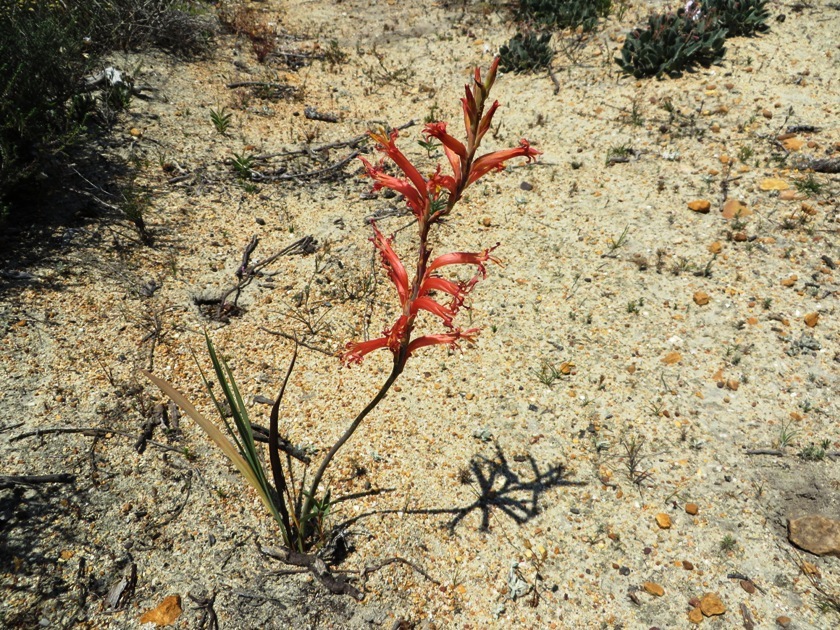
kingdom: Plantae
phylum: Tracheophyta
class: Liliopsida
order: Asparagales
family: Iridaceae
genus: Tritoniopsis
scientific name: Tritoniopsis antholyza
